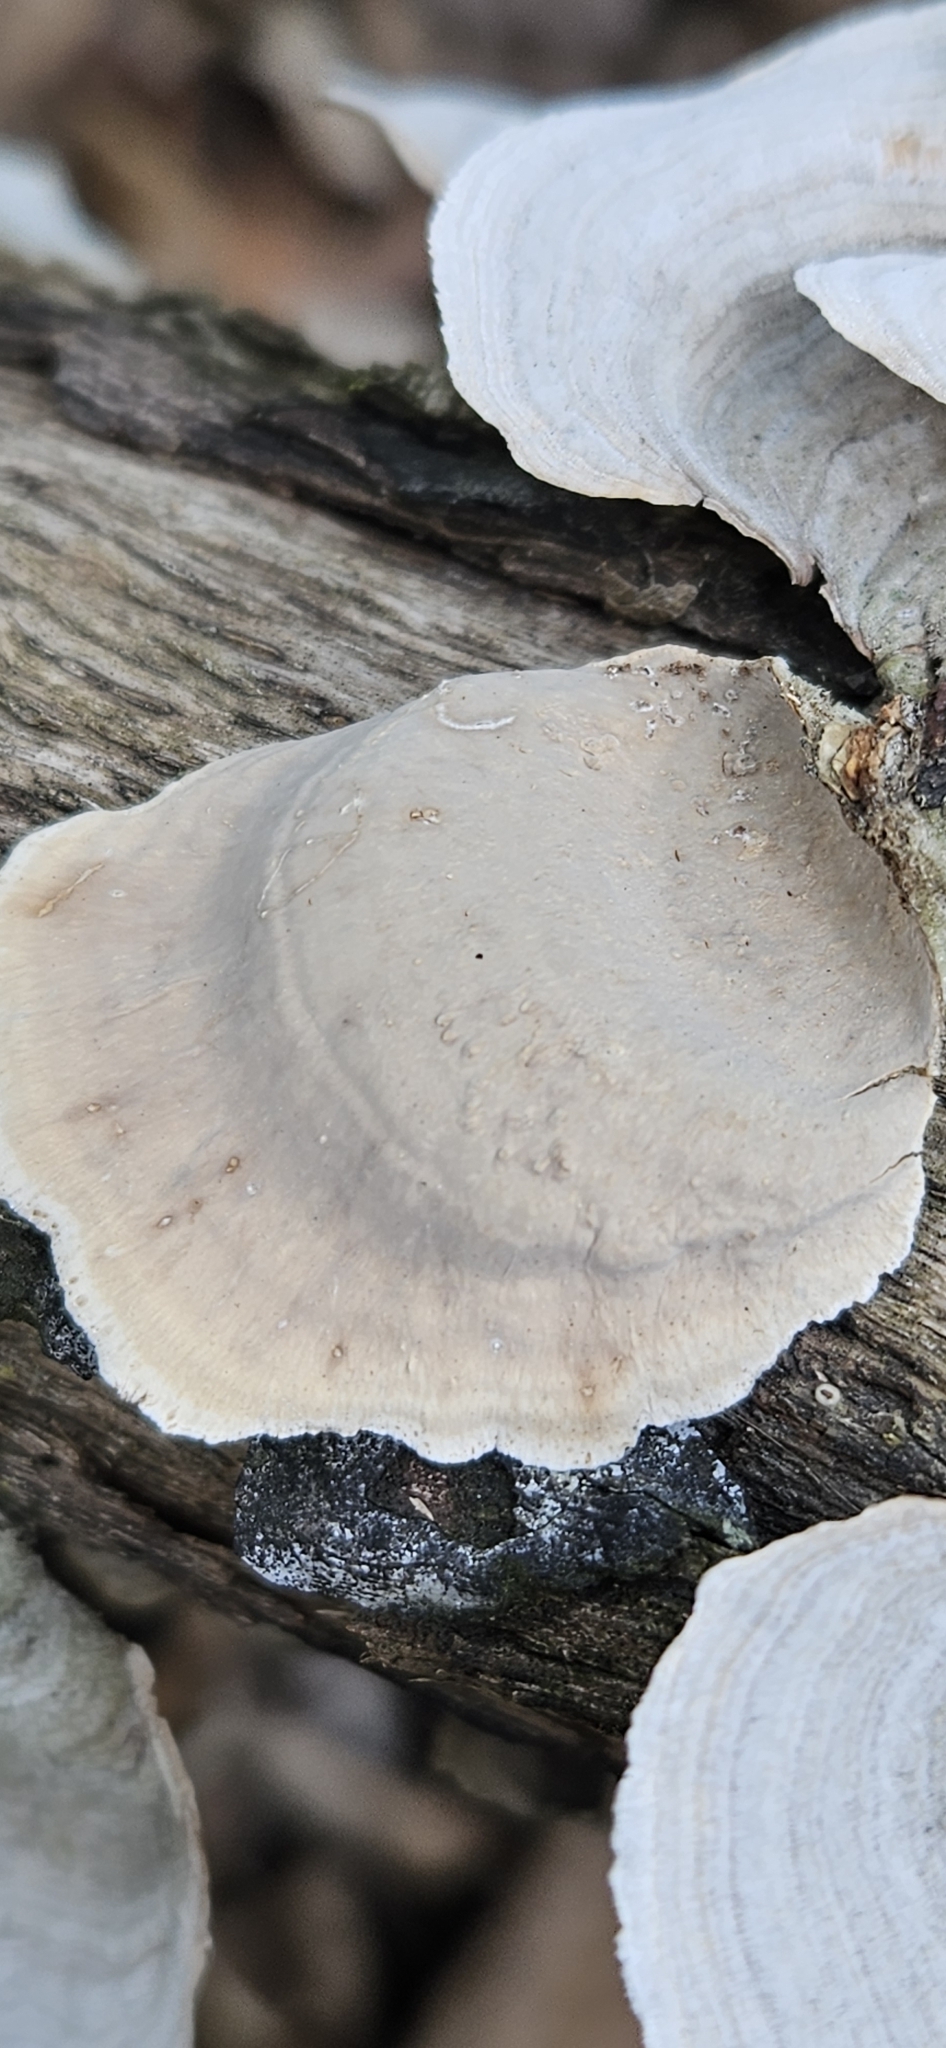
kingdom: Fungi
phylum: Basidiomycota
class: Agaricomycetes
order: Russulales
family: Stereaceae
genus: Stereum
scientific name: Stereum ostrea
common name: False turkeytail
